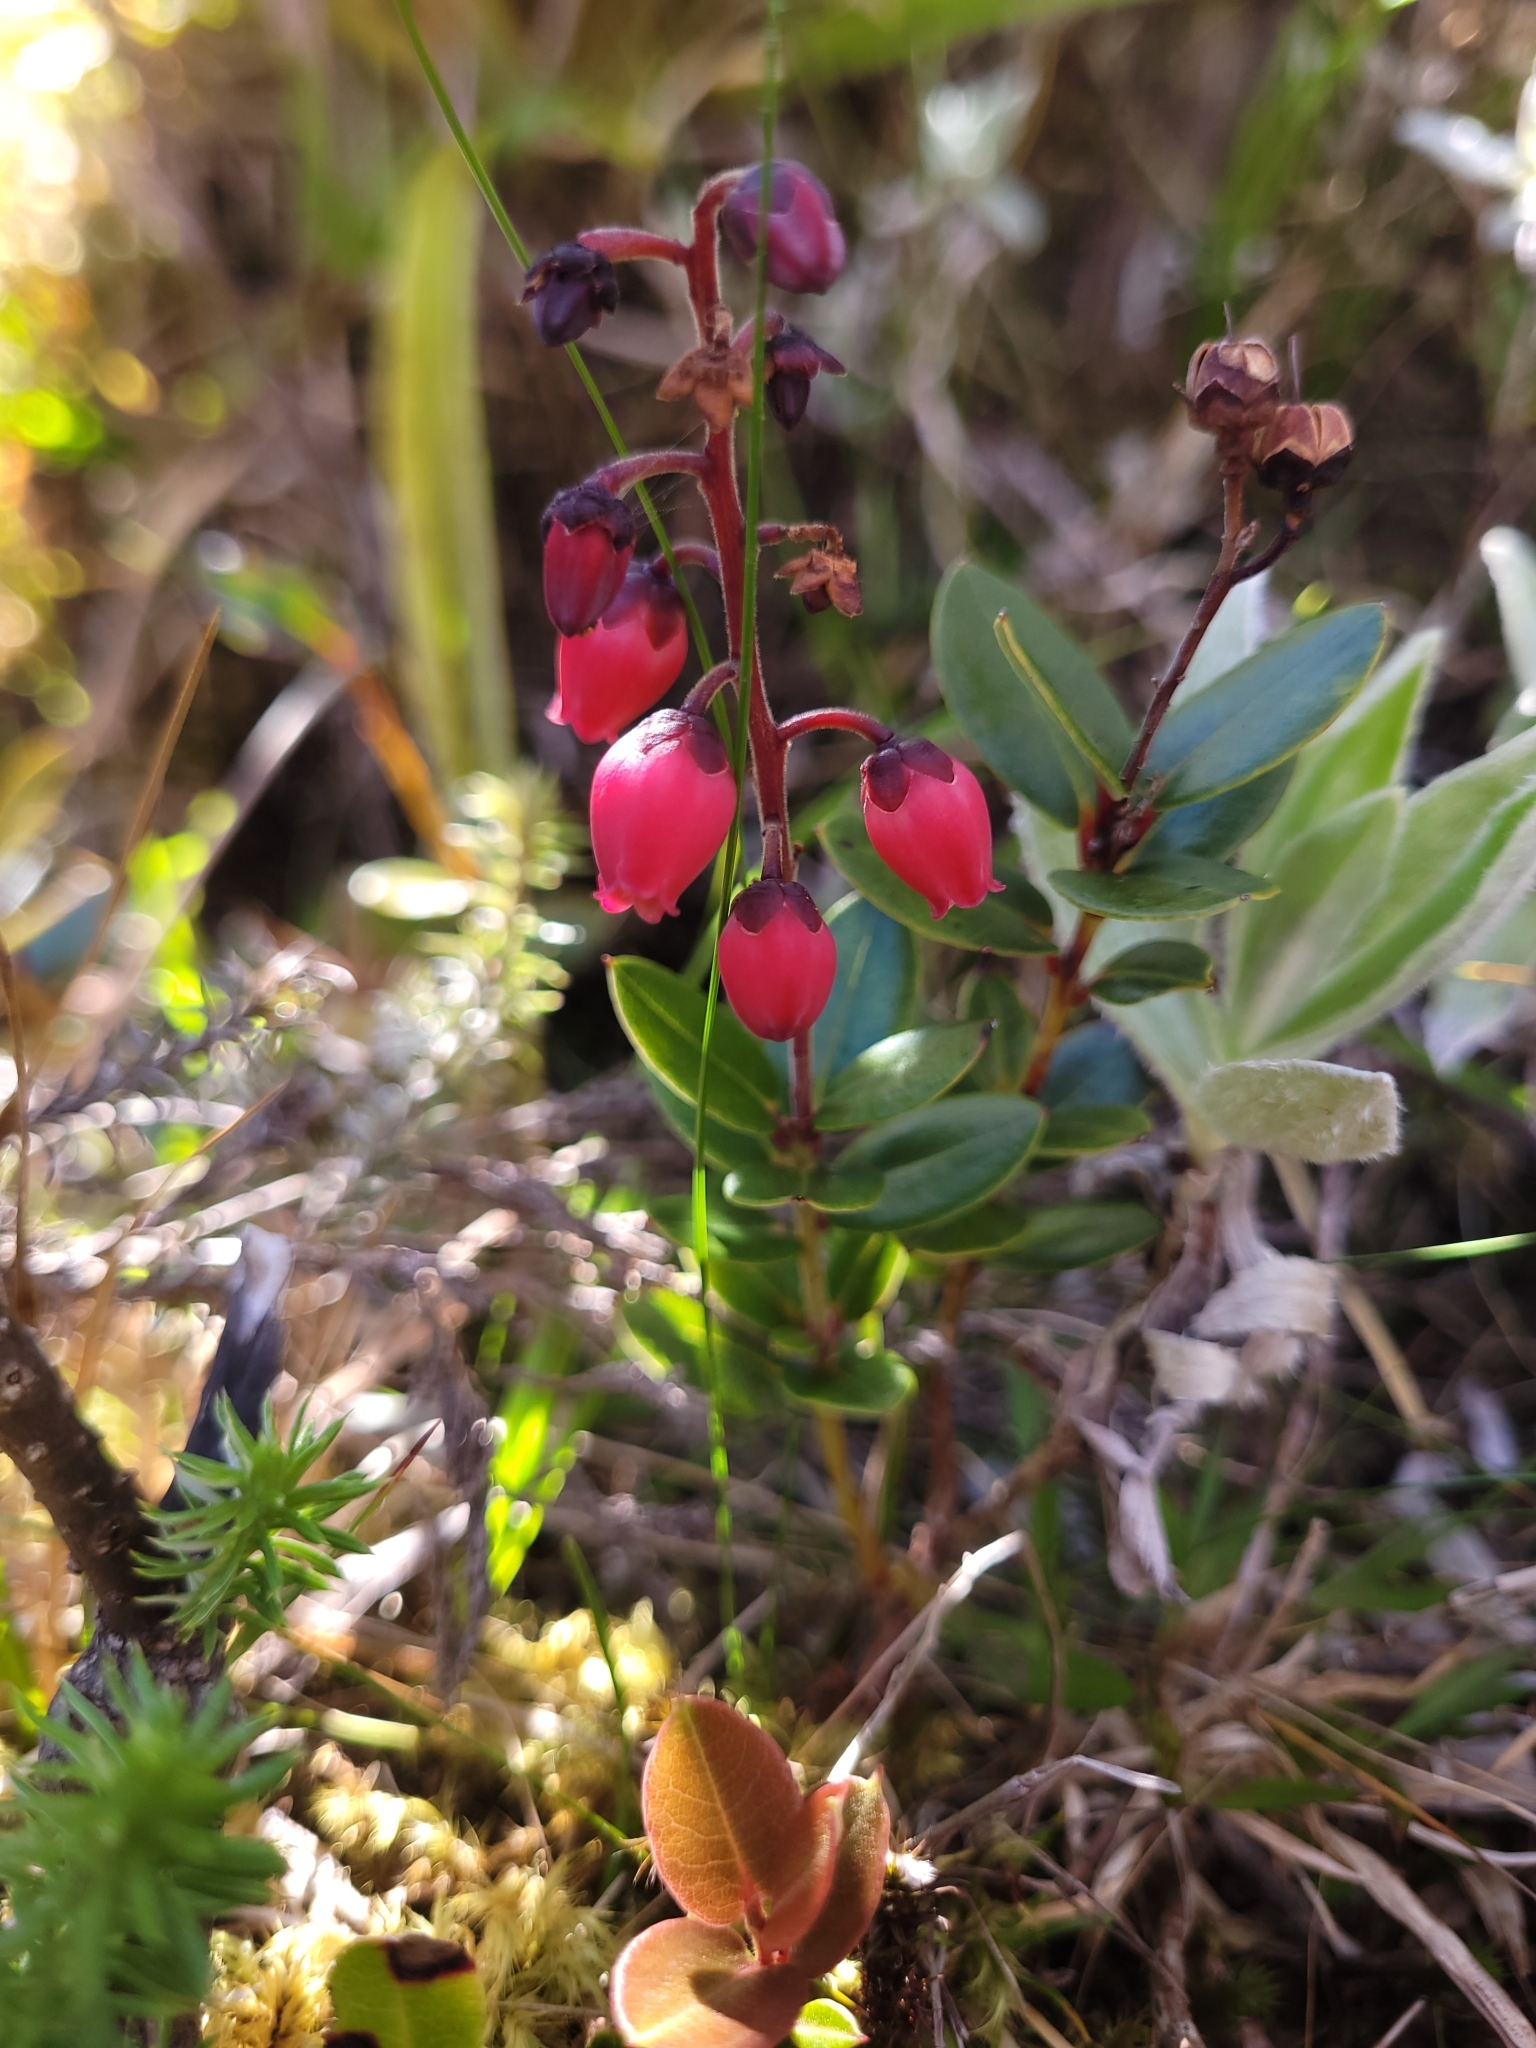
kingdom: Plantae
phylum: Tracheophyta
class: Magnoliopsida
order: Ericales
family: Ericaceae
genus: Agarista
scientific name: Agarista buxifolia
